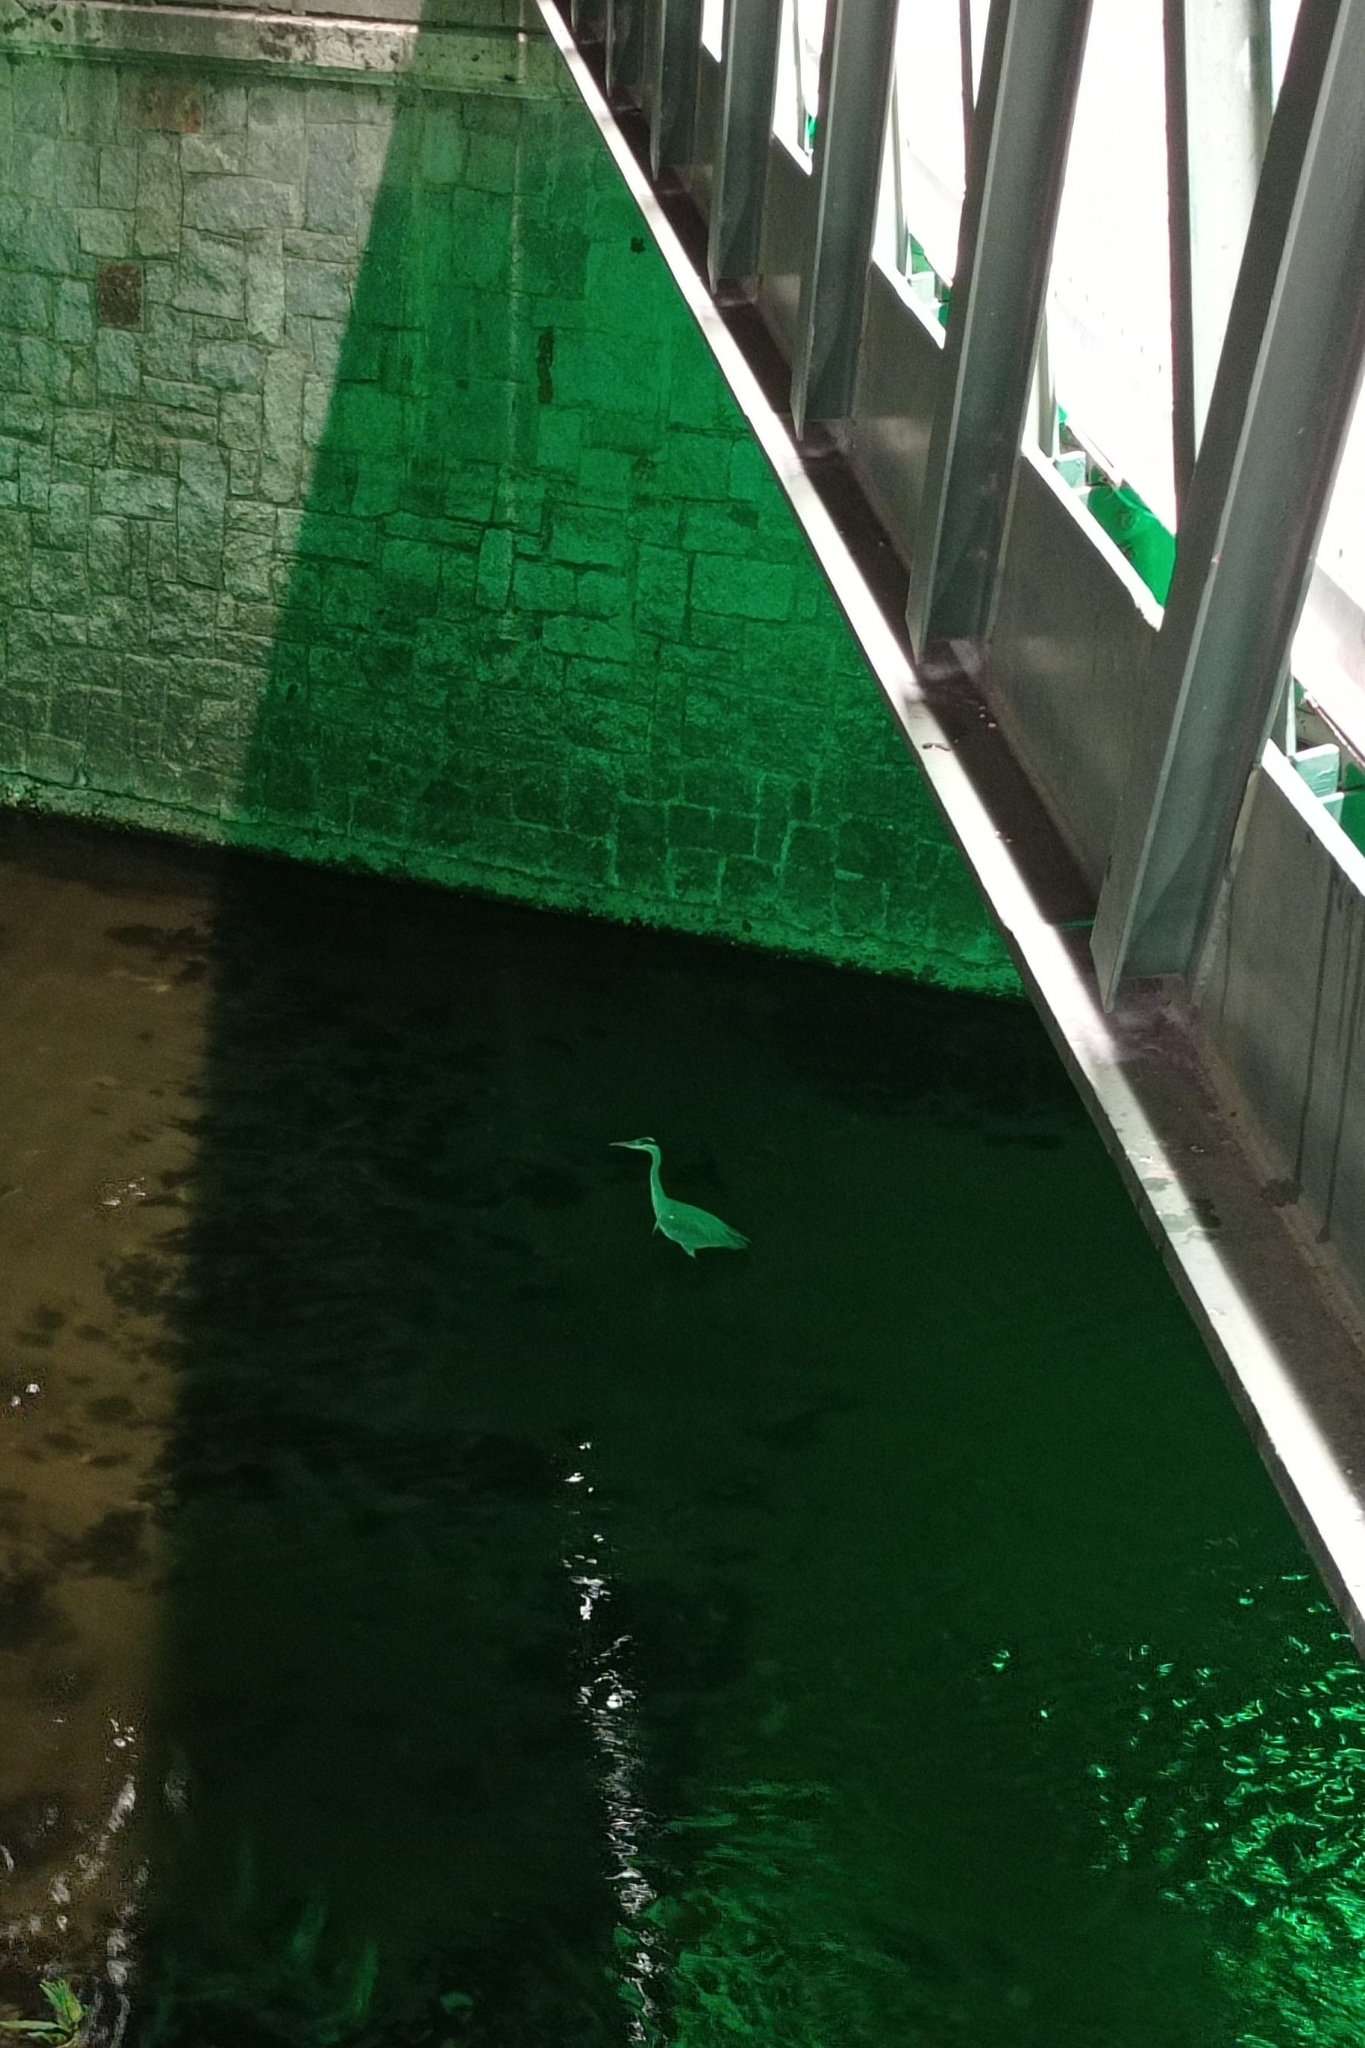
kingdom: Animalia
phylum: Chordata
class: Aves
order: Pelecaniformes
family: Ardeidae
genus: Ardea
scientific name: Ardea cinerea
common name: Grey heron
